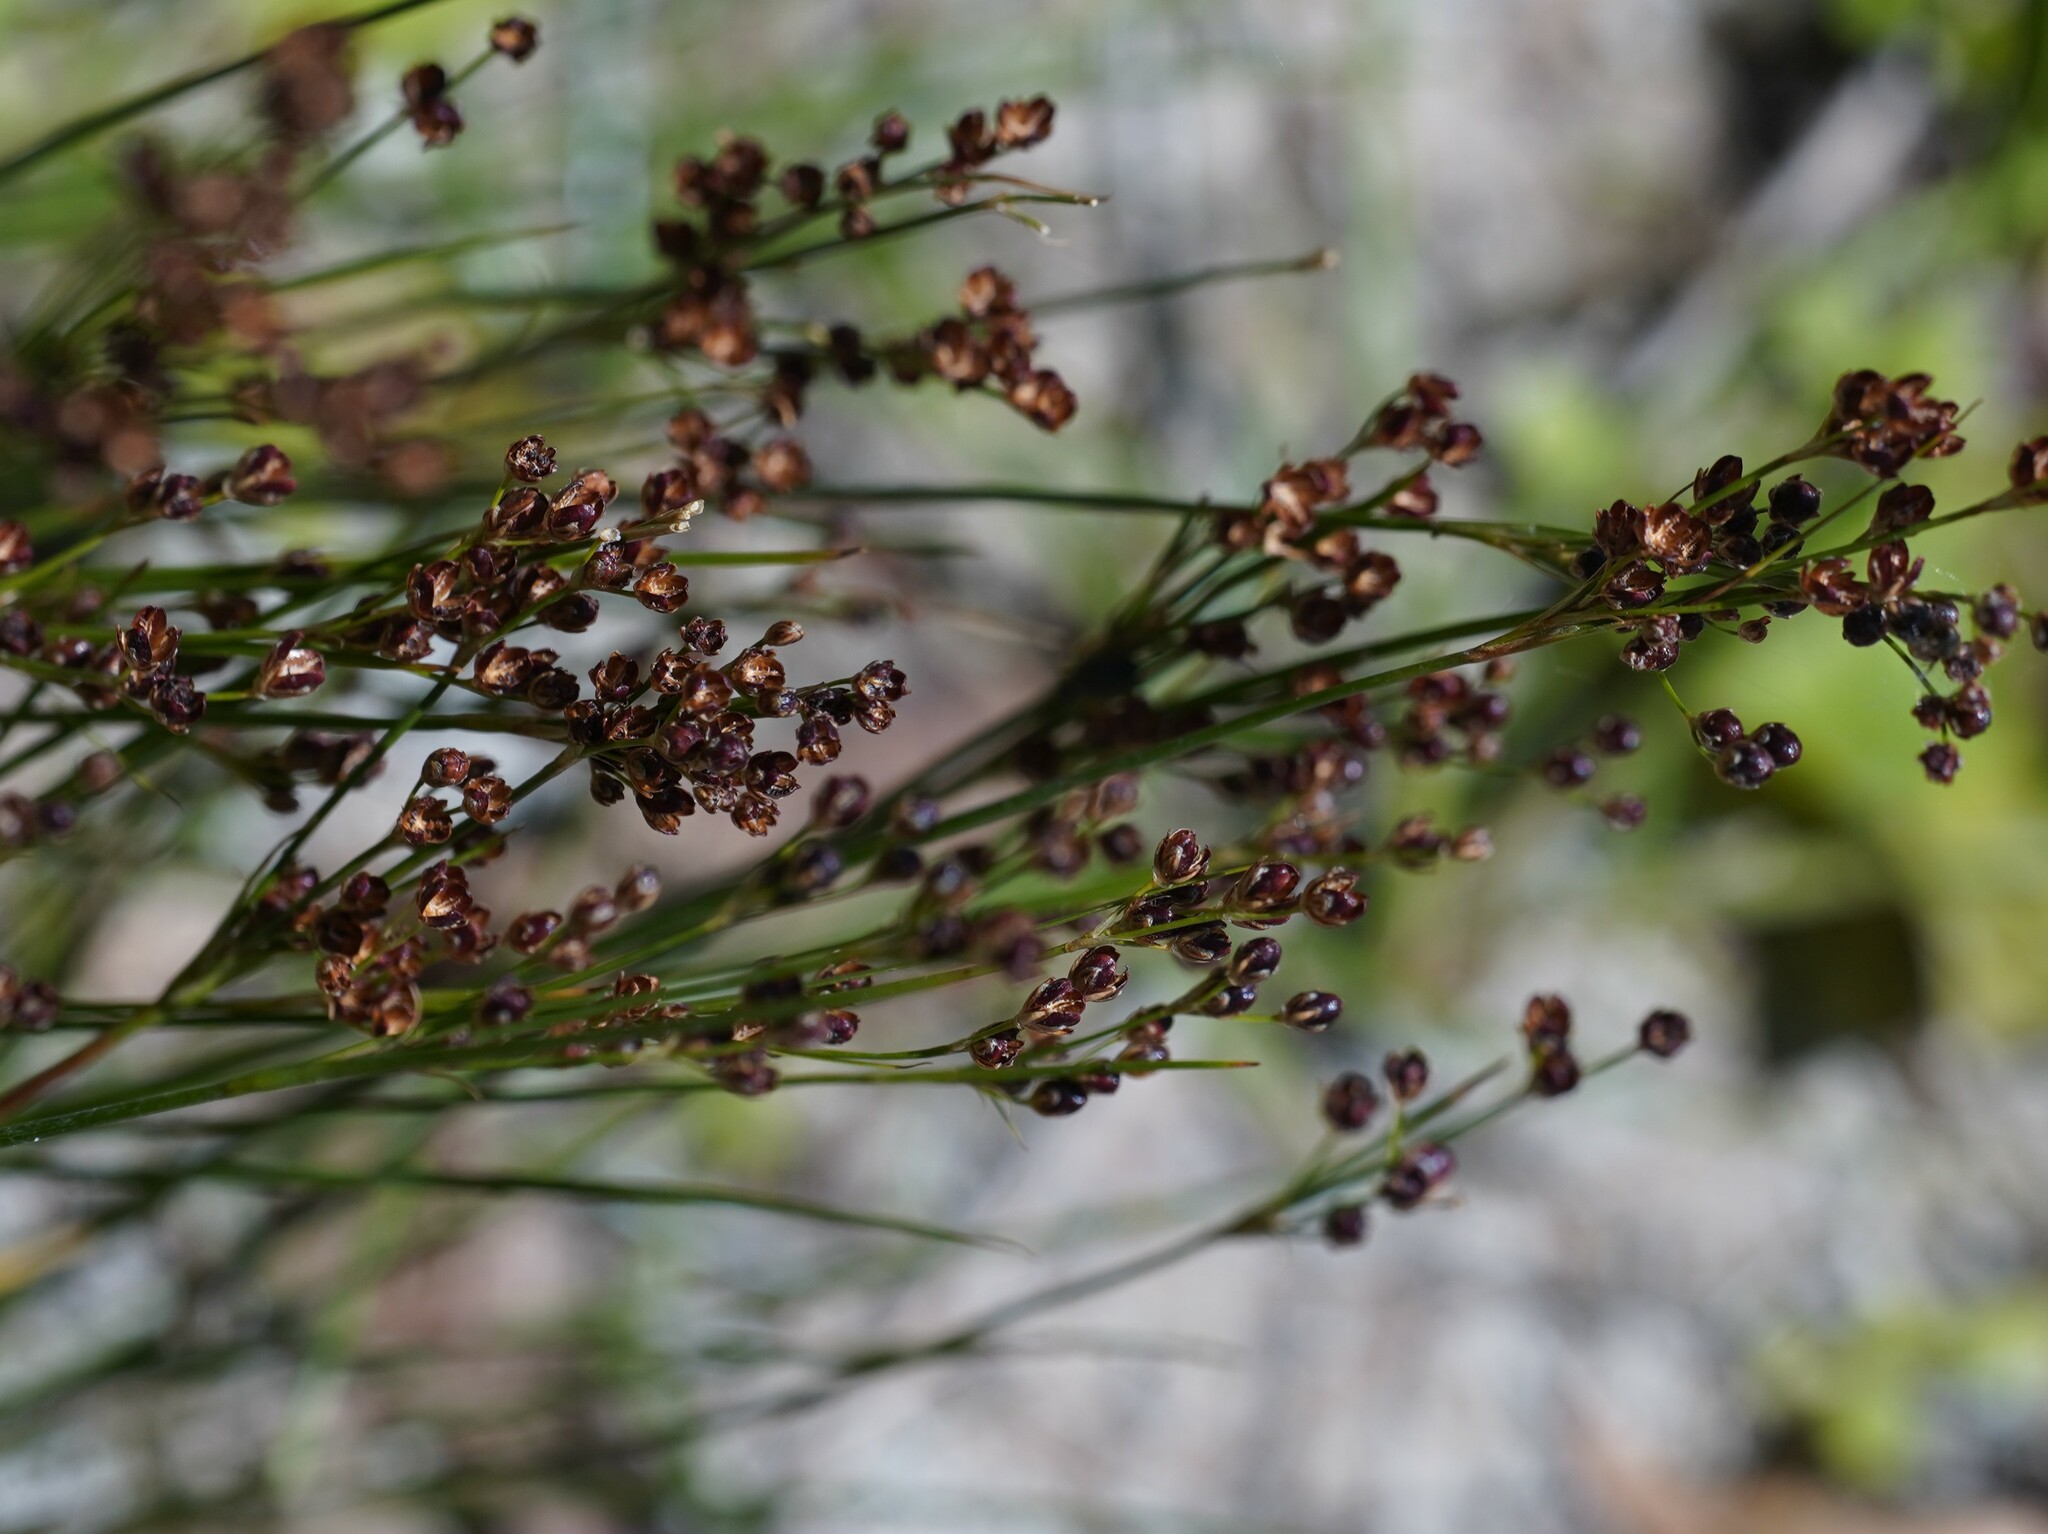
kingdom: Plantae
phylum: Tracheophyta
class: Liliopsida
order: Poales
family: Juncaceae
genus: Juncus
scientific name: Juncus compressus
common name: Round-fruited rush
